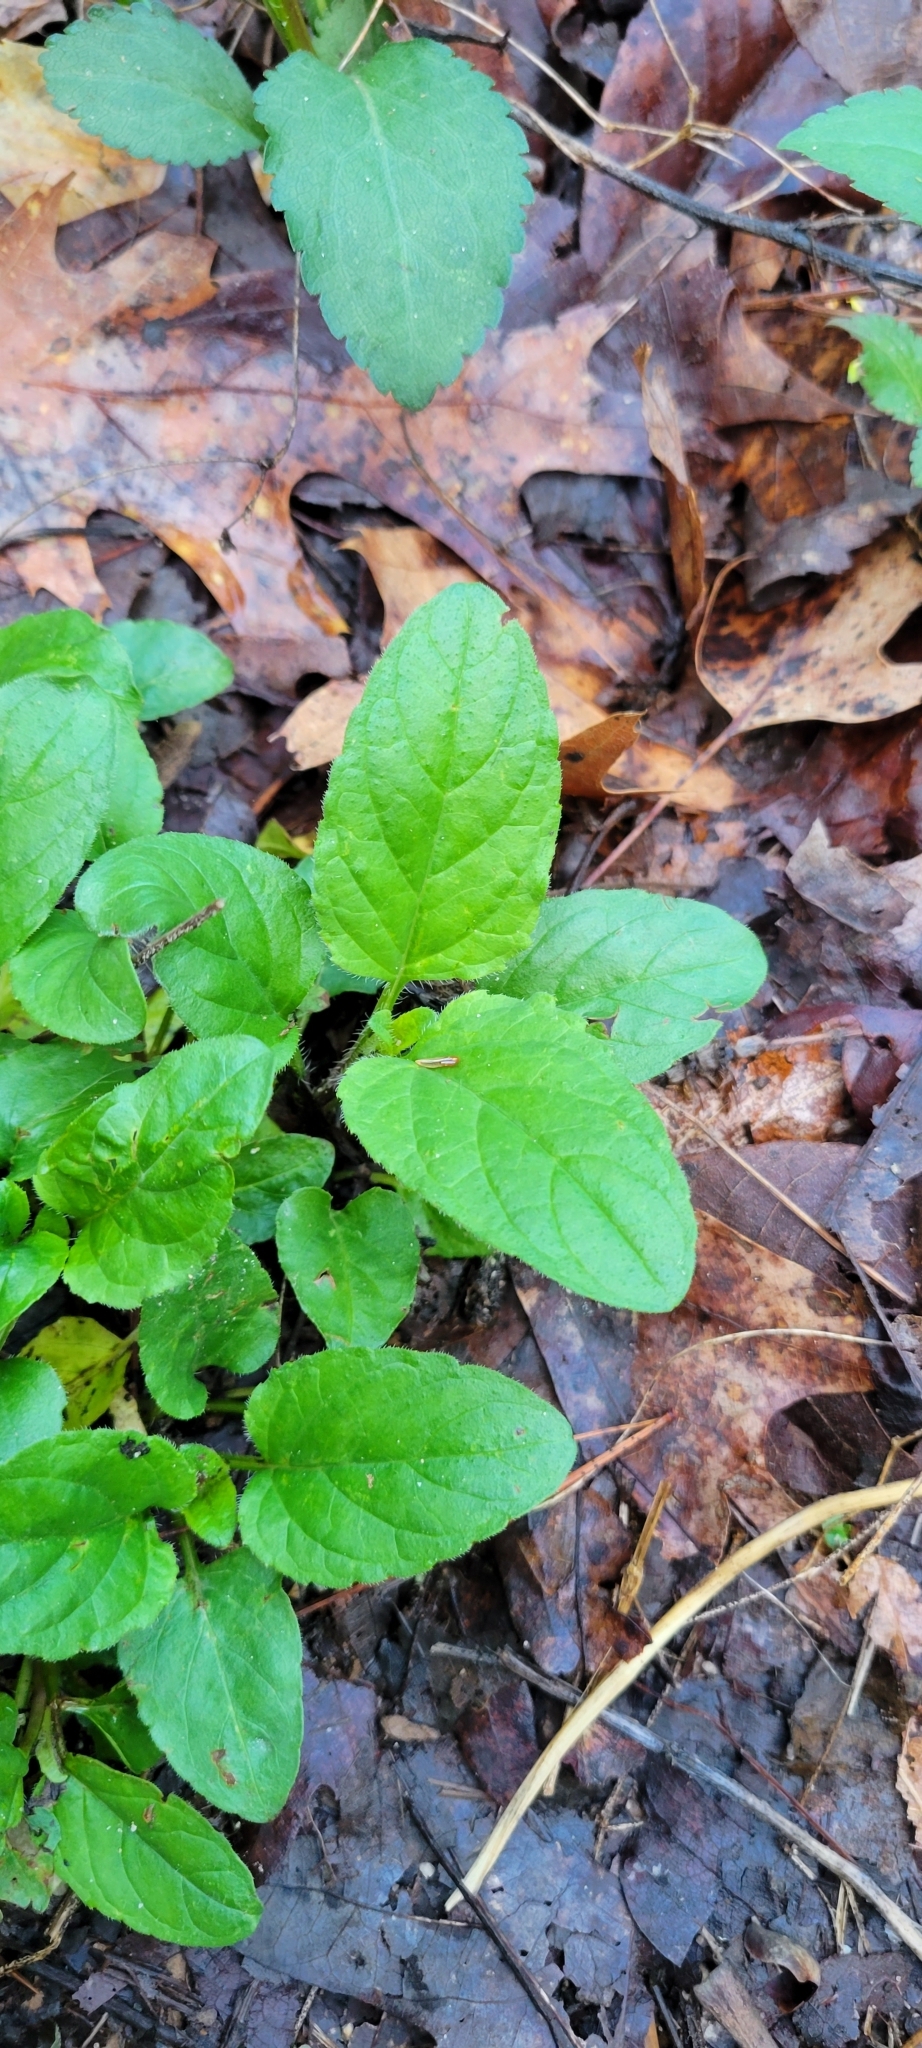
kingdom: Plantae
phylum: Tracheophyta
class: Magnoliopsida
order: Lamiales
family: Lamiaceae
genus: Prunella
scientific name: Prunella vulgaris
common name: Heal-all
